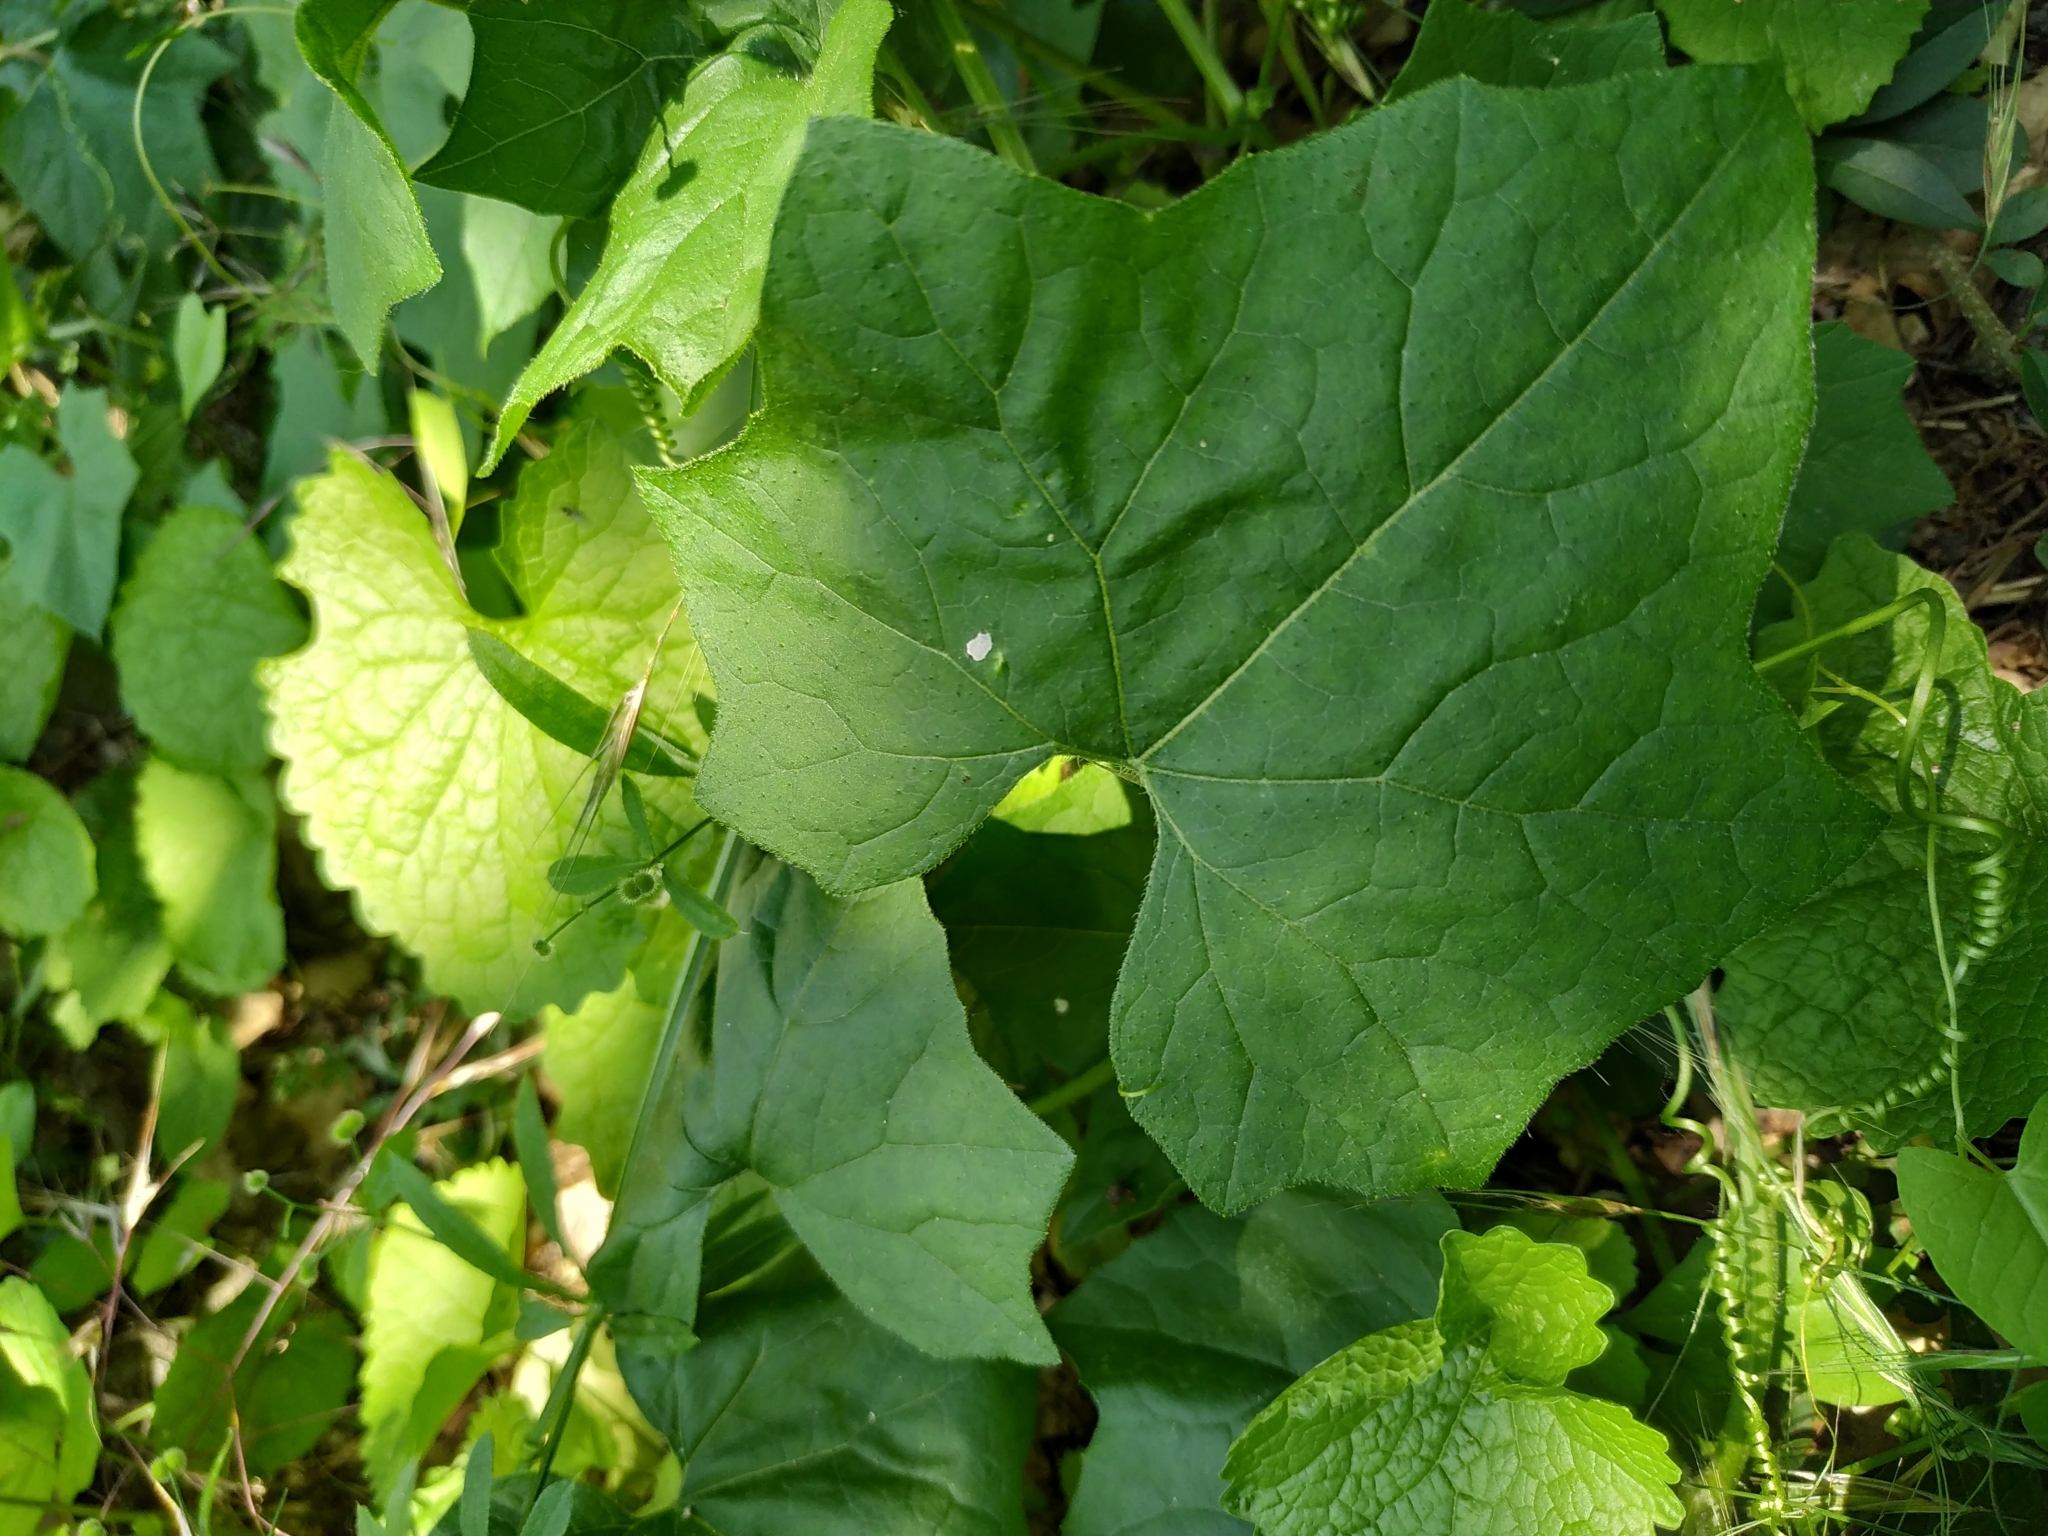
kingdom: Plantae
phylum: Tracheophyta
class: Magnoliopsida
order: Cucurbitales
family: Cucurbitaceae
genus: Bryonia
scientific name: Bryonia alba
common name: White bryony
